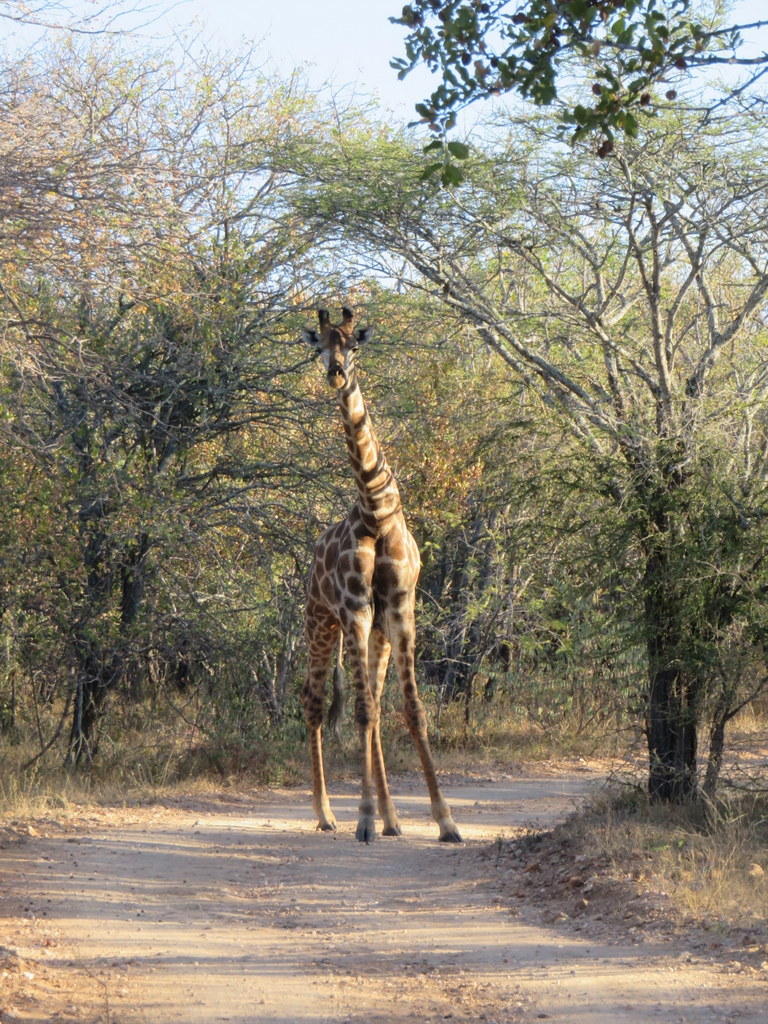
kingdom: Animalia
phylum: Chordata
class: Mammalia
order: Artiodactyla
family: Giraffidae
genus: Giraffa
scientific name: Giraffa giraffa
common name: Southern giraffe
